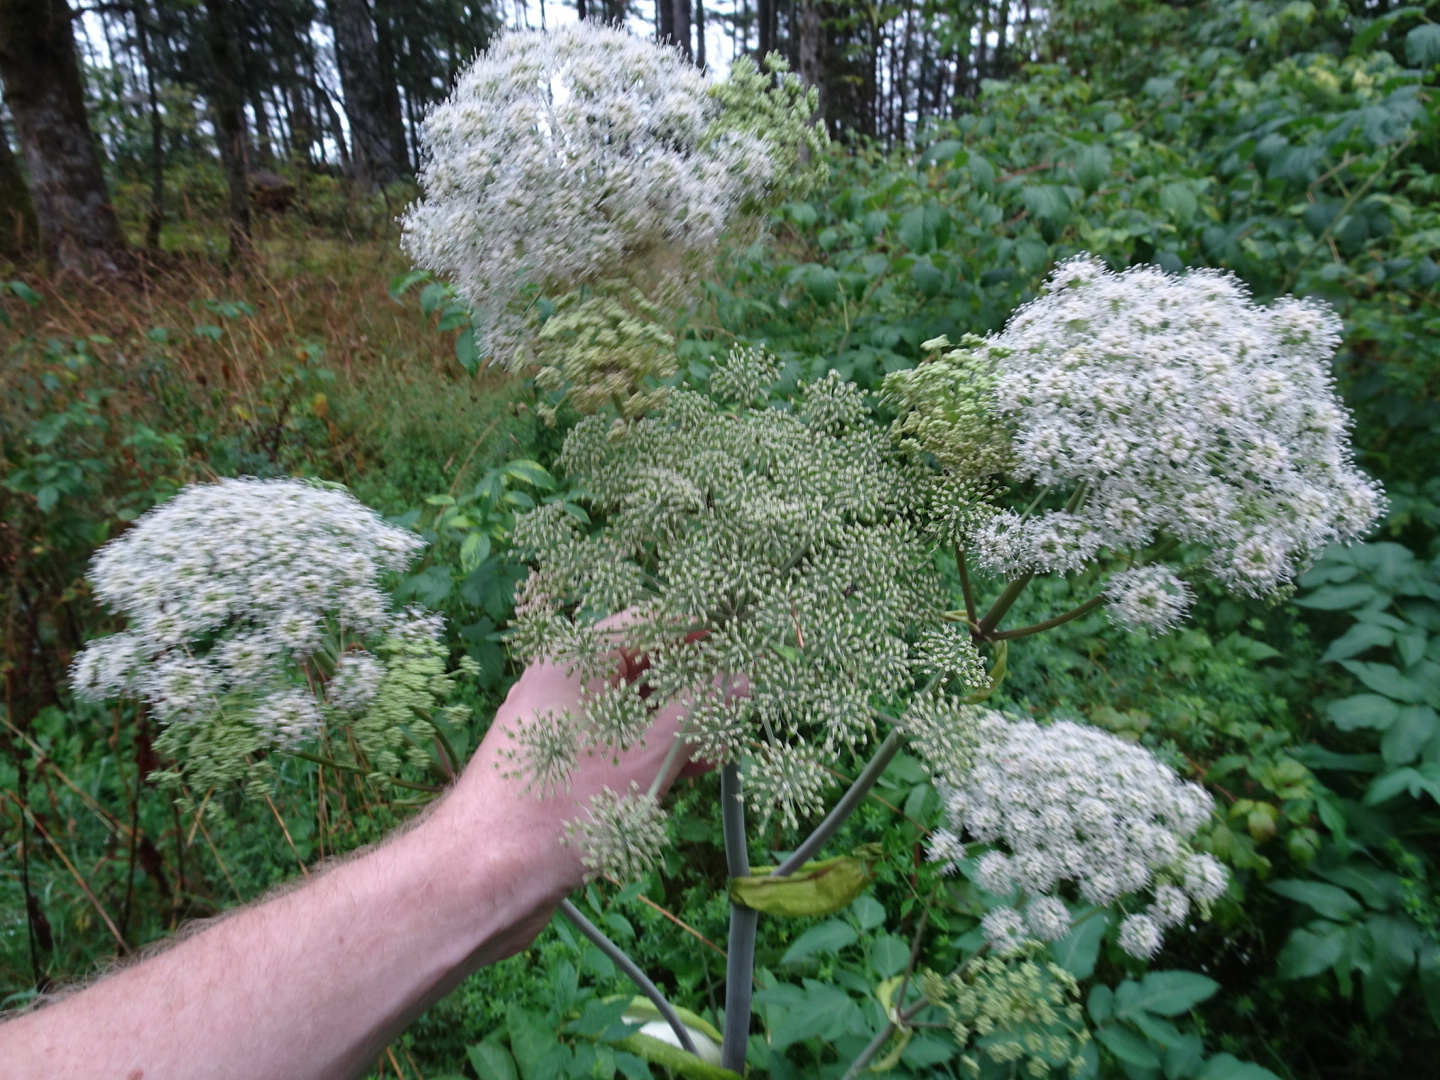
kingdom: Plantae
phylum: Tracheophyta
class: Magnoliopsida
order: Apiales
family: Apiaceae
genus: Angelica
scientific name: Angelica sylvestris
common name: Wild angelica
